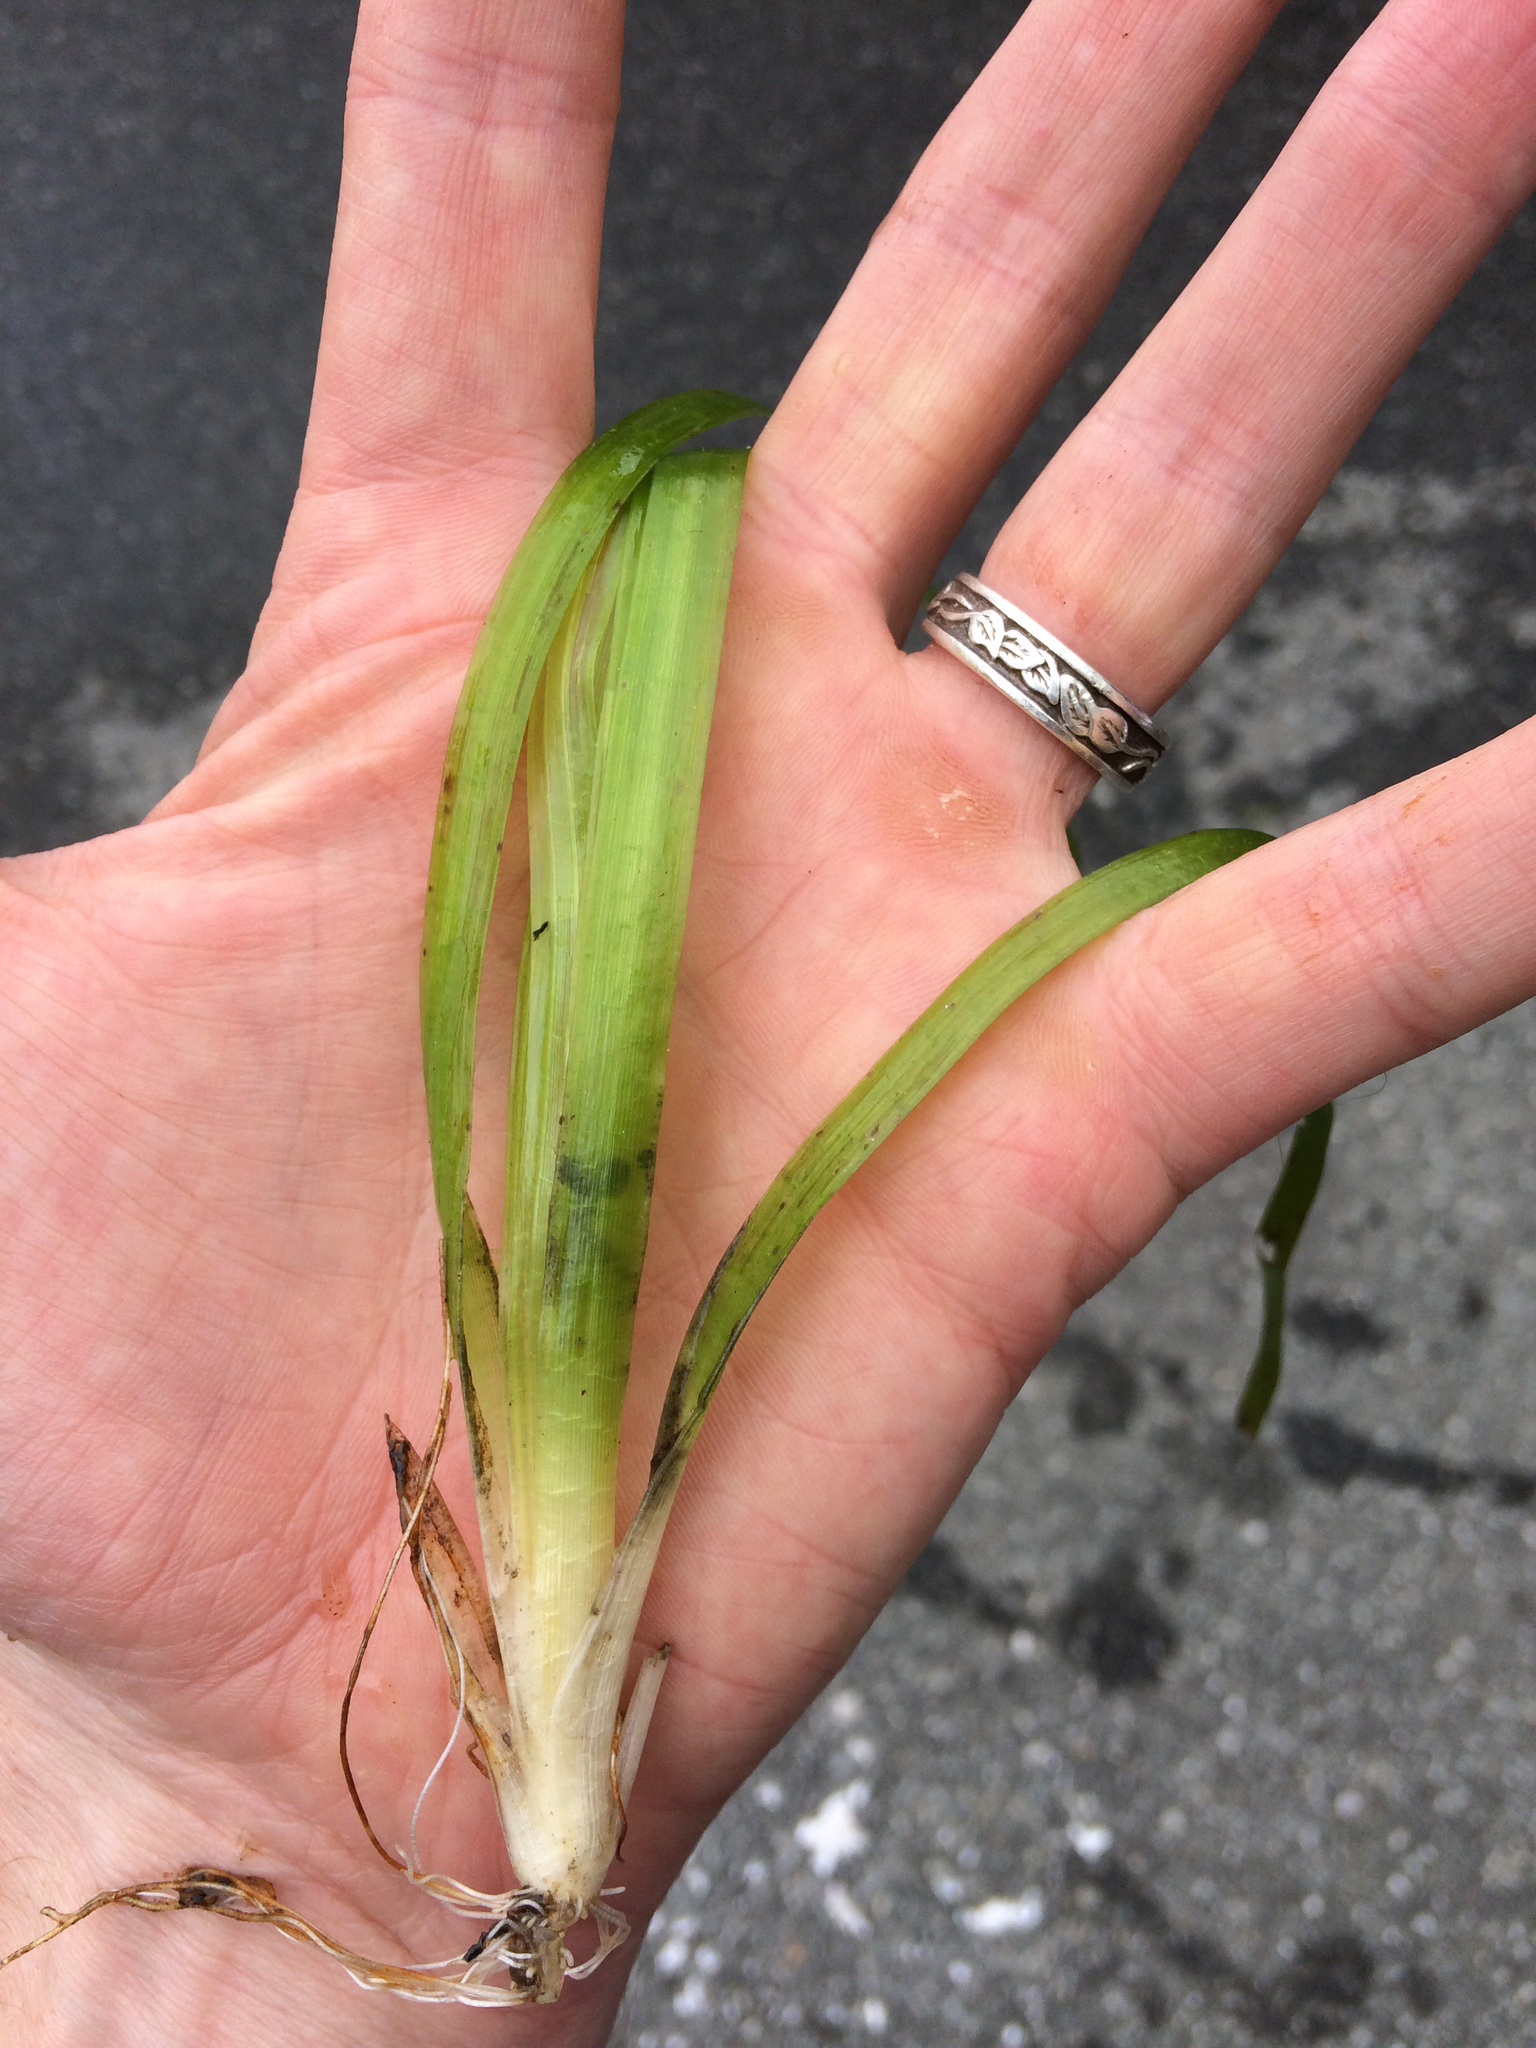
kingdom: Plantae
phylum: Tracheophyta
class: Liliopsida
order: Alismatales
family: Hydrocharitaceae
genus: Vallisneria
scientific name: Vallisneria americana
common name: American eelgrass
